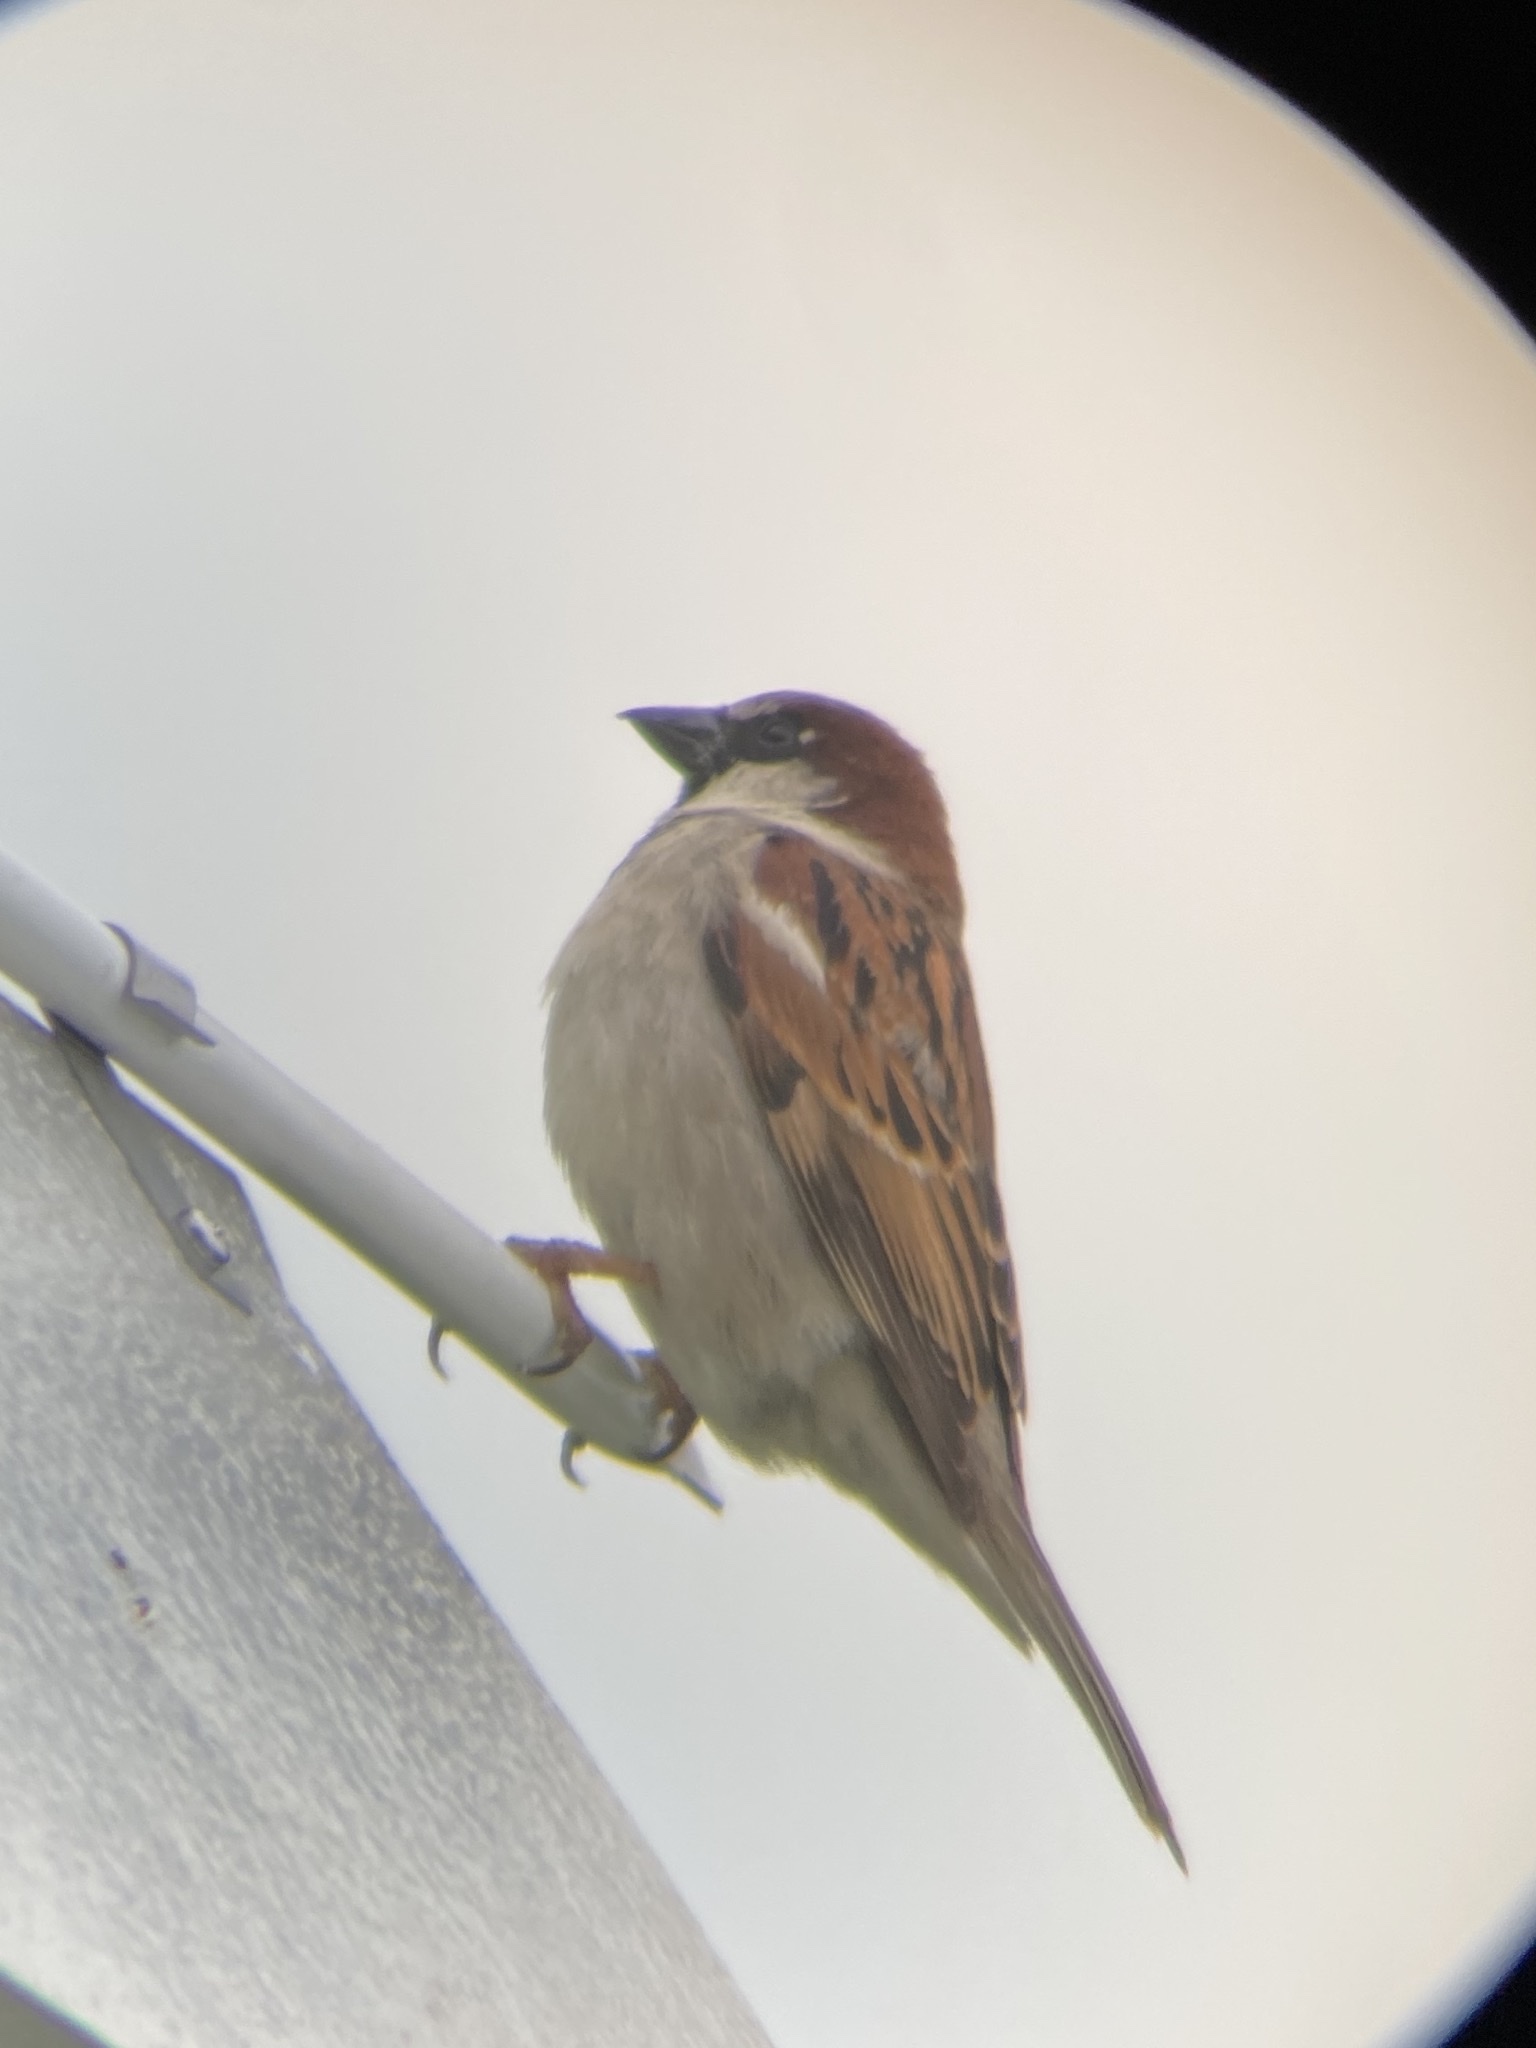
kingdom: Animalia
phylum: Chordata
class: Aves
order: Passeriformes
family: Passeridae
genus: Passer
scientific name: Passer domesticus
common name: House sparrow
